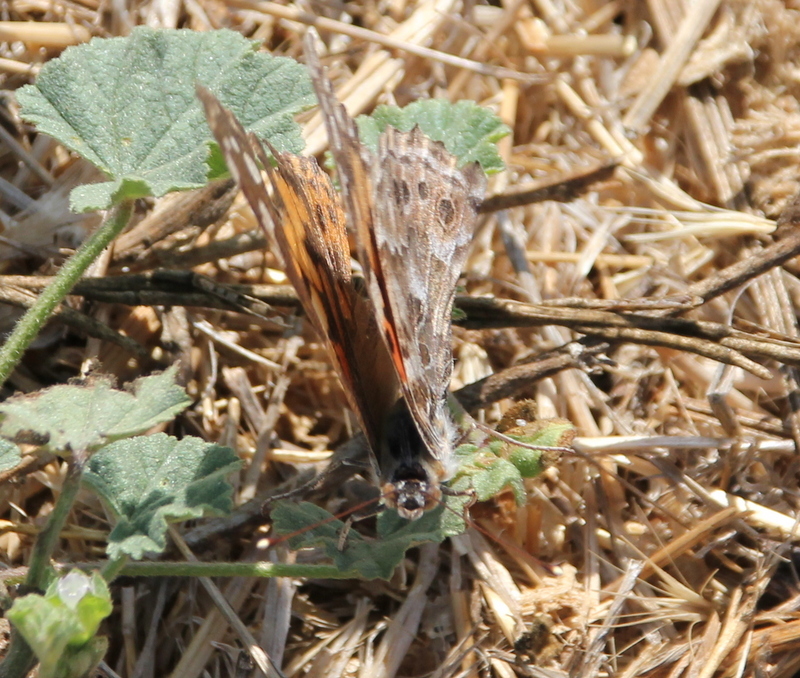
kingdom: Animalia
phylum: Arthropoda
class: Insecta
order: Lepidoptera
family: Nymphalidae
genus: Vanessa
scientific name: Vanessa cardui
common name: Painted lady
